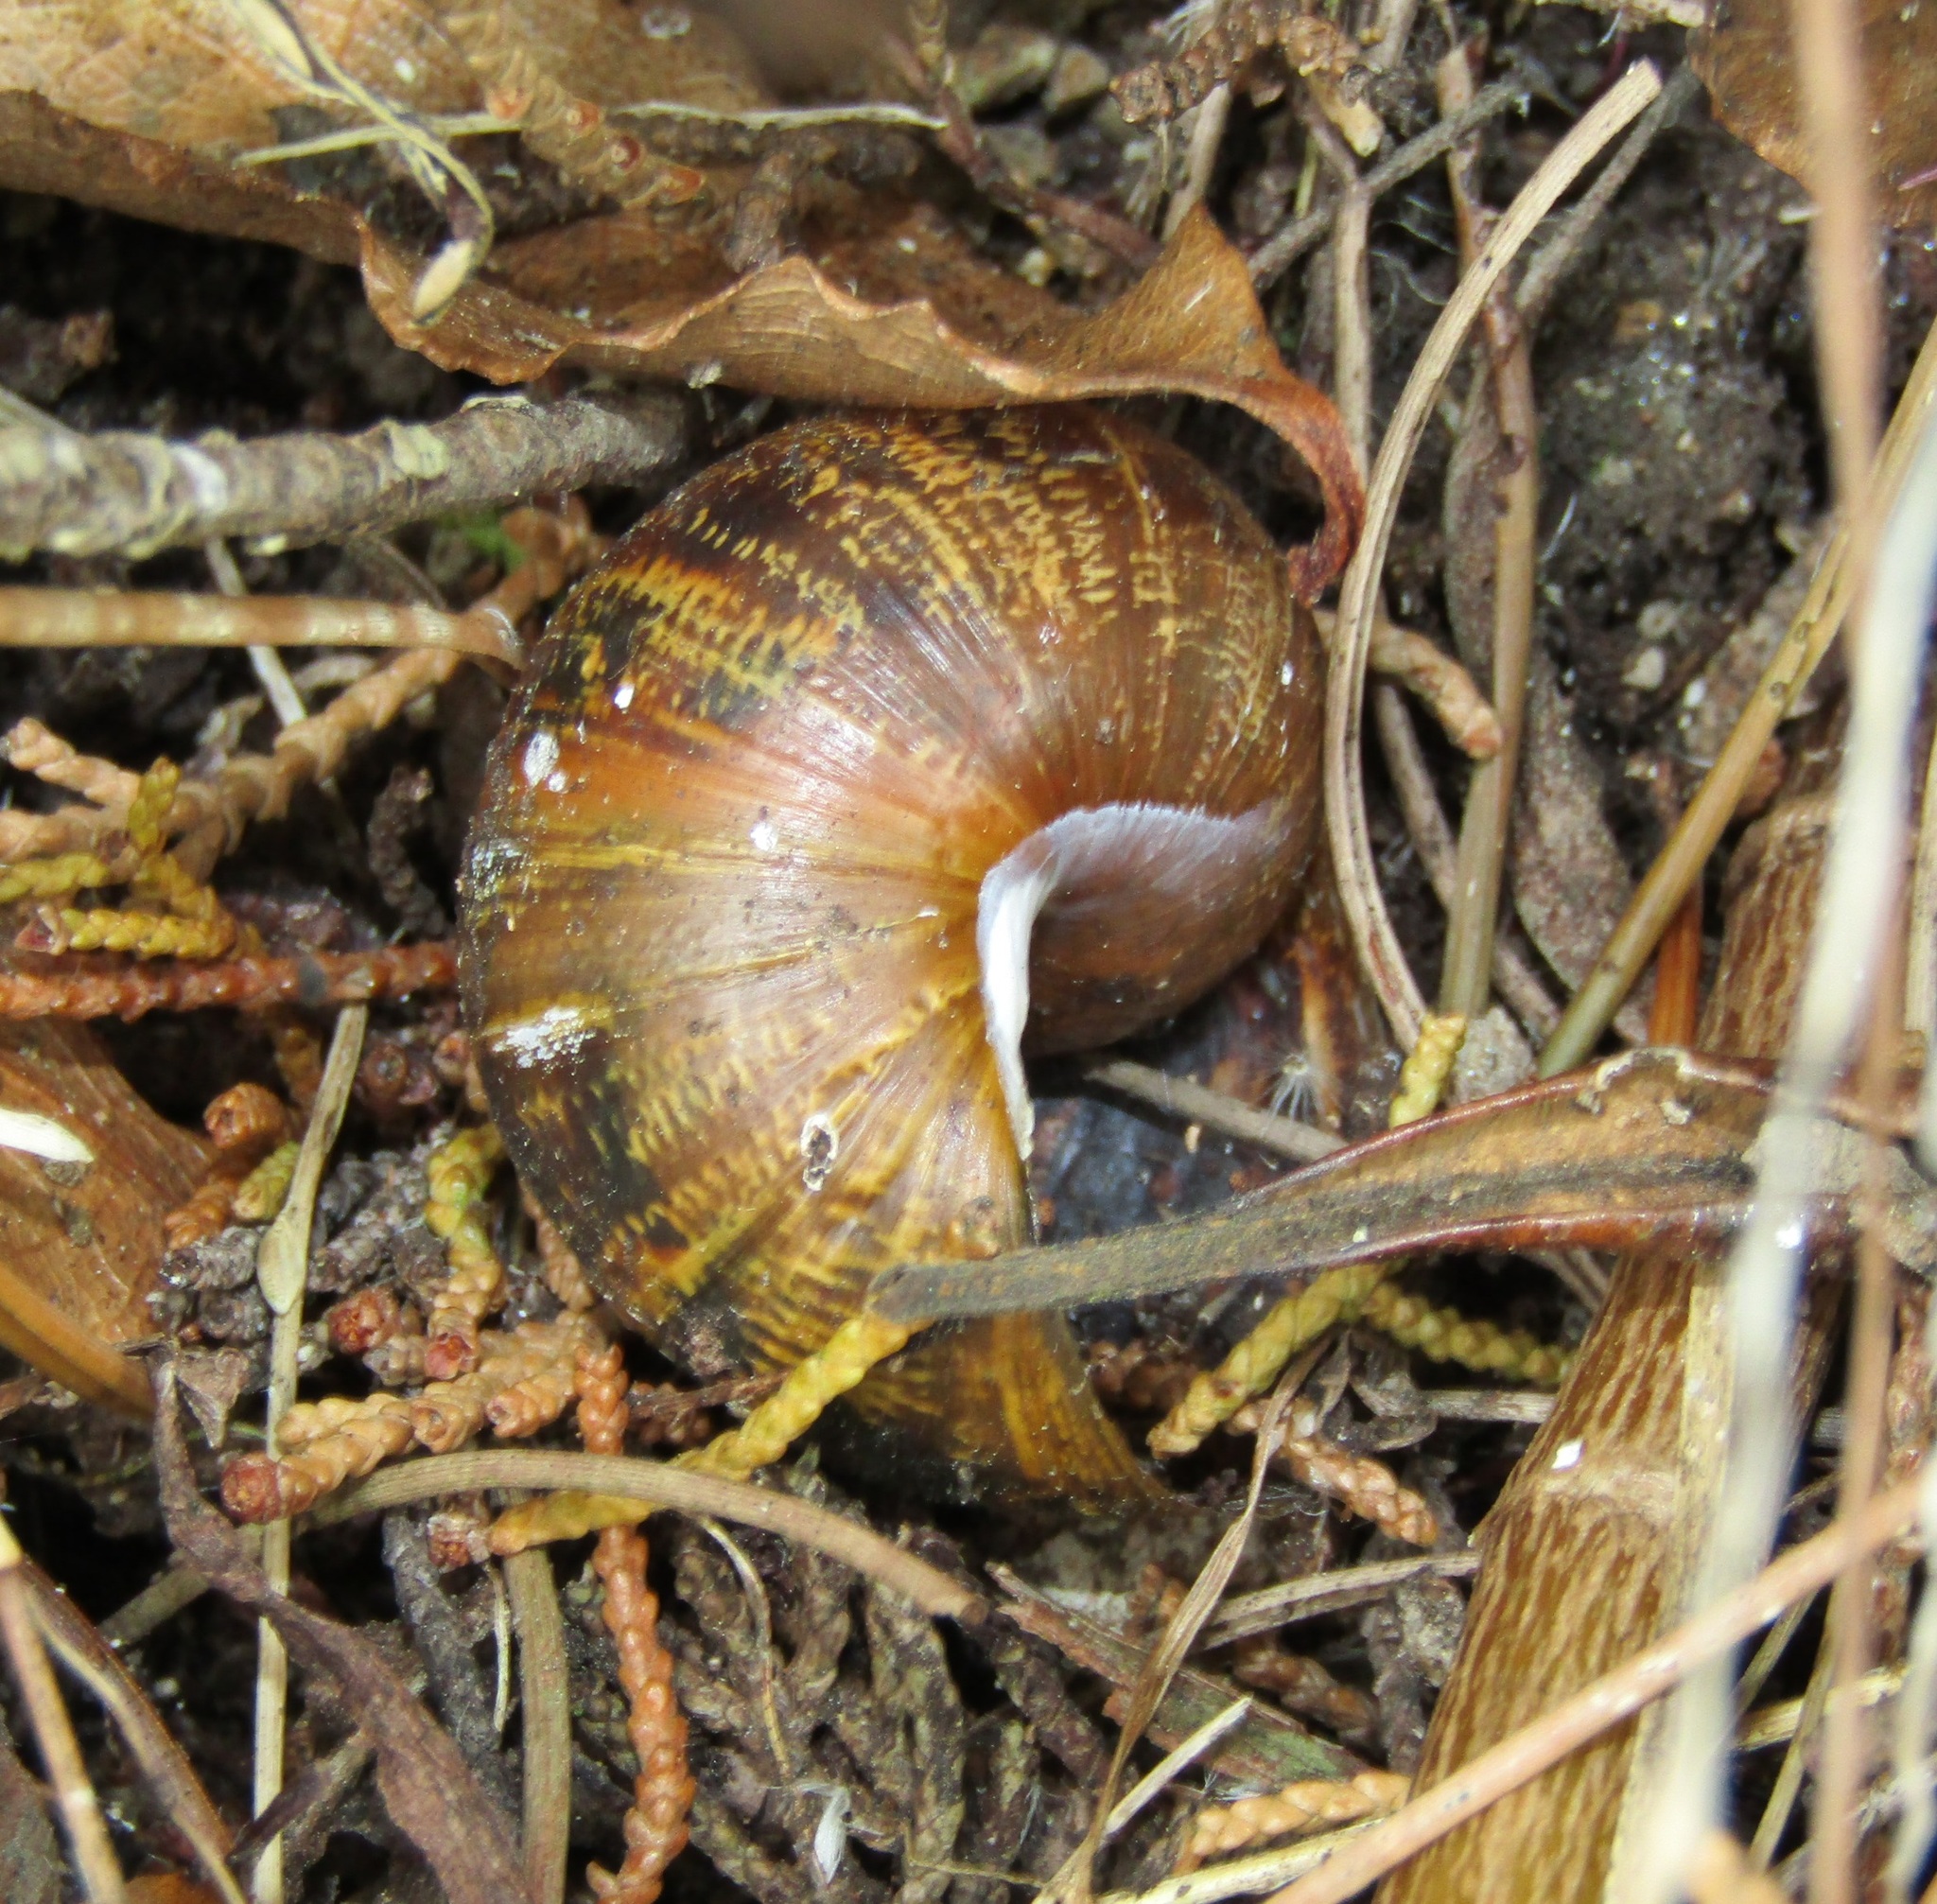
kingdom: Animalia
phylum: Mollusca
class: Gastropoda
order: Stylommatophora
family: Helicidae
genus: Cornu
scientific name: Cornu aspersum
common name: Brown garden snail
